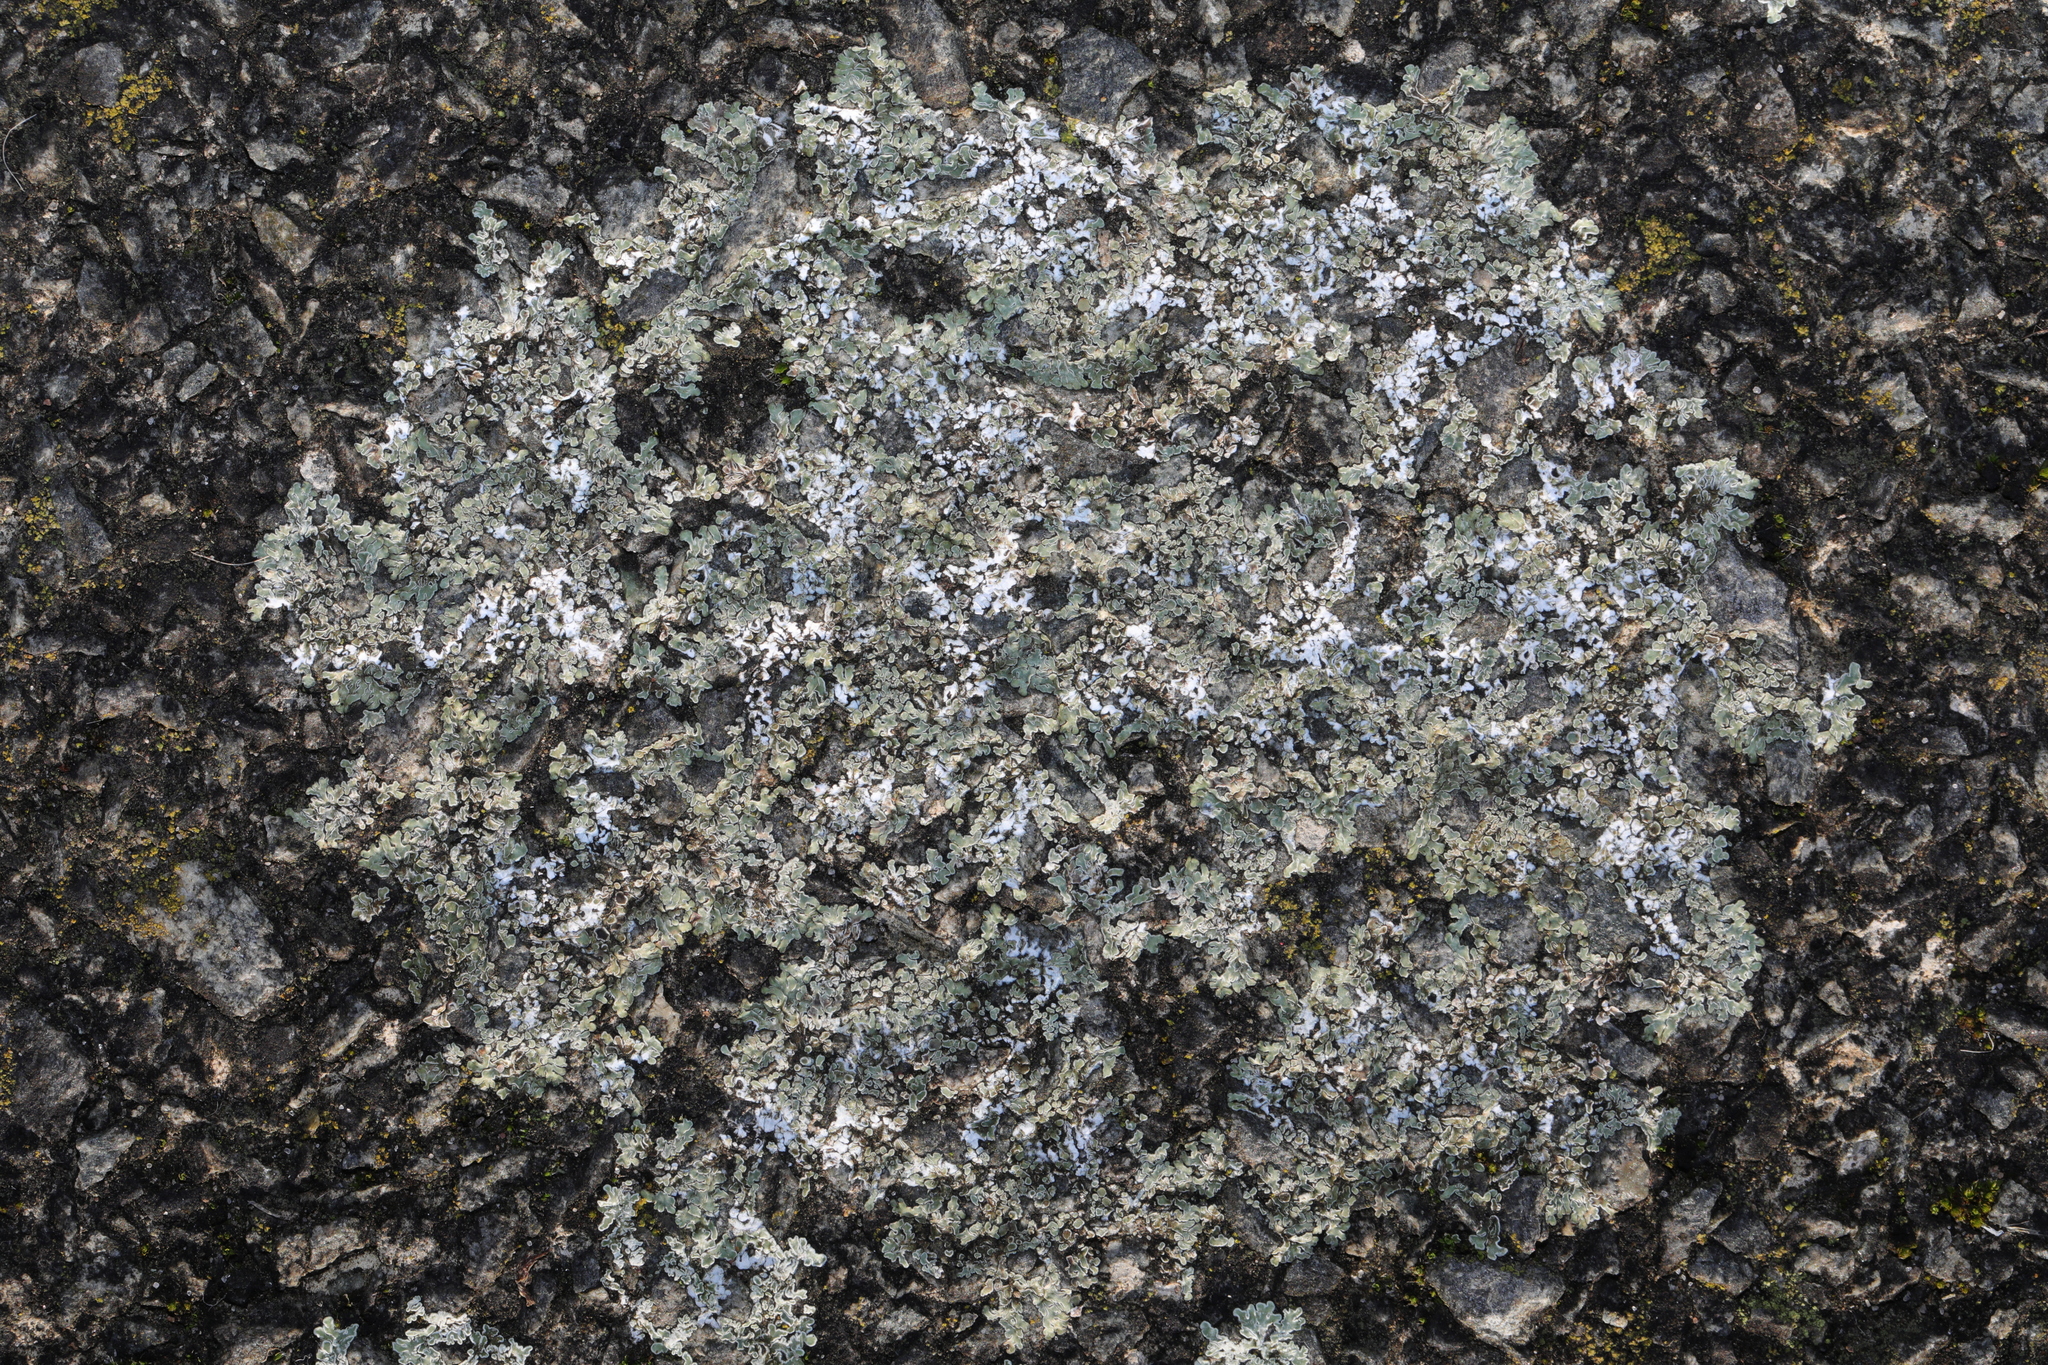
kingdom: Fungi
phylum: Ascomycota
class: Lecanoromycetes
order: Lecanorales
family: Lecanoraceae
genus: Protoparmeliopsis
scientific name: Protoparmeliopsis muralis
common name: Stonewall rim lichen
